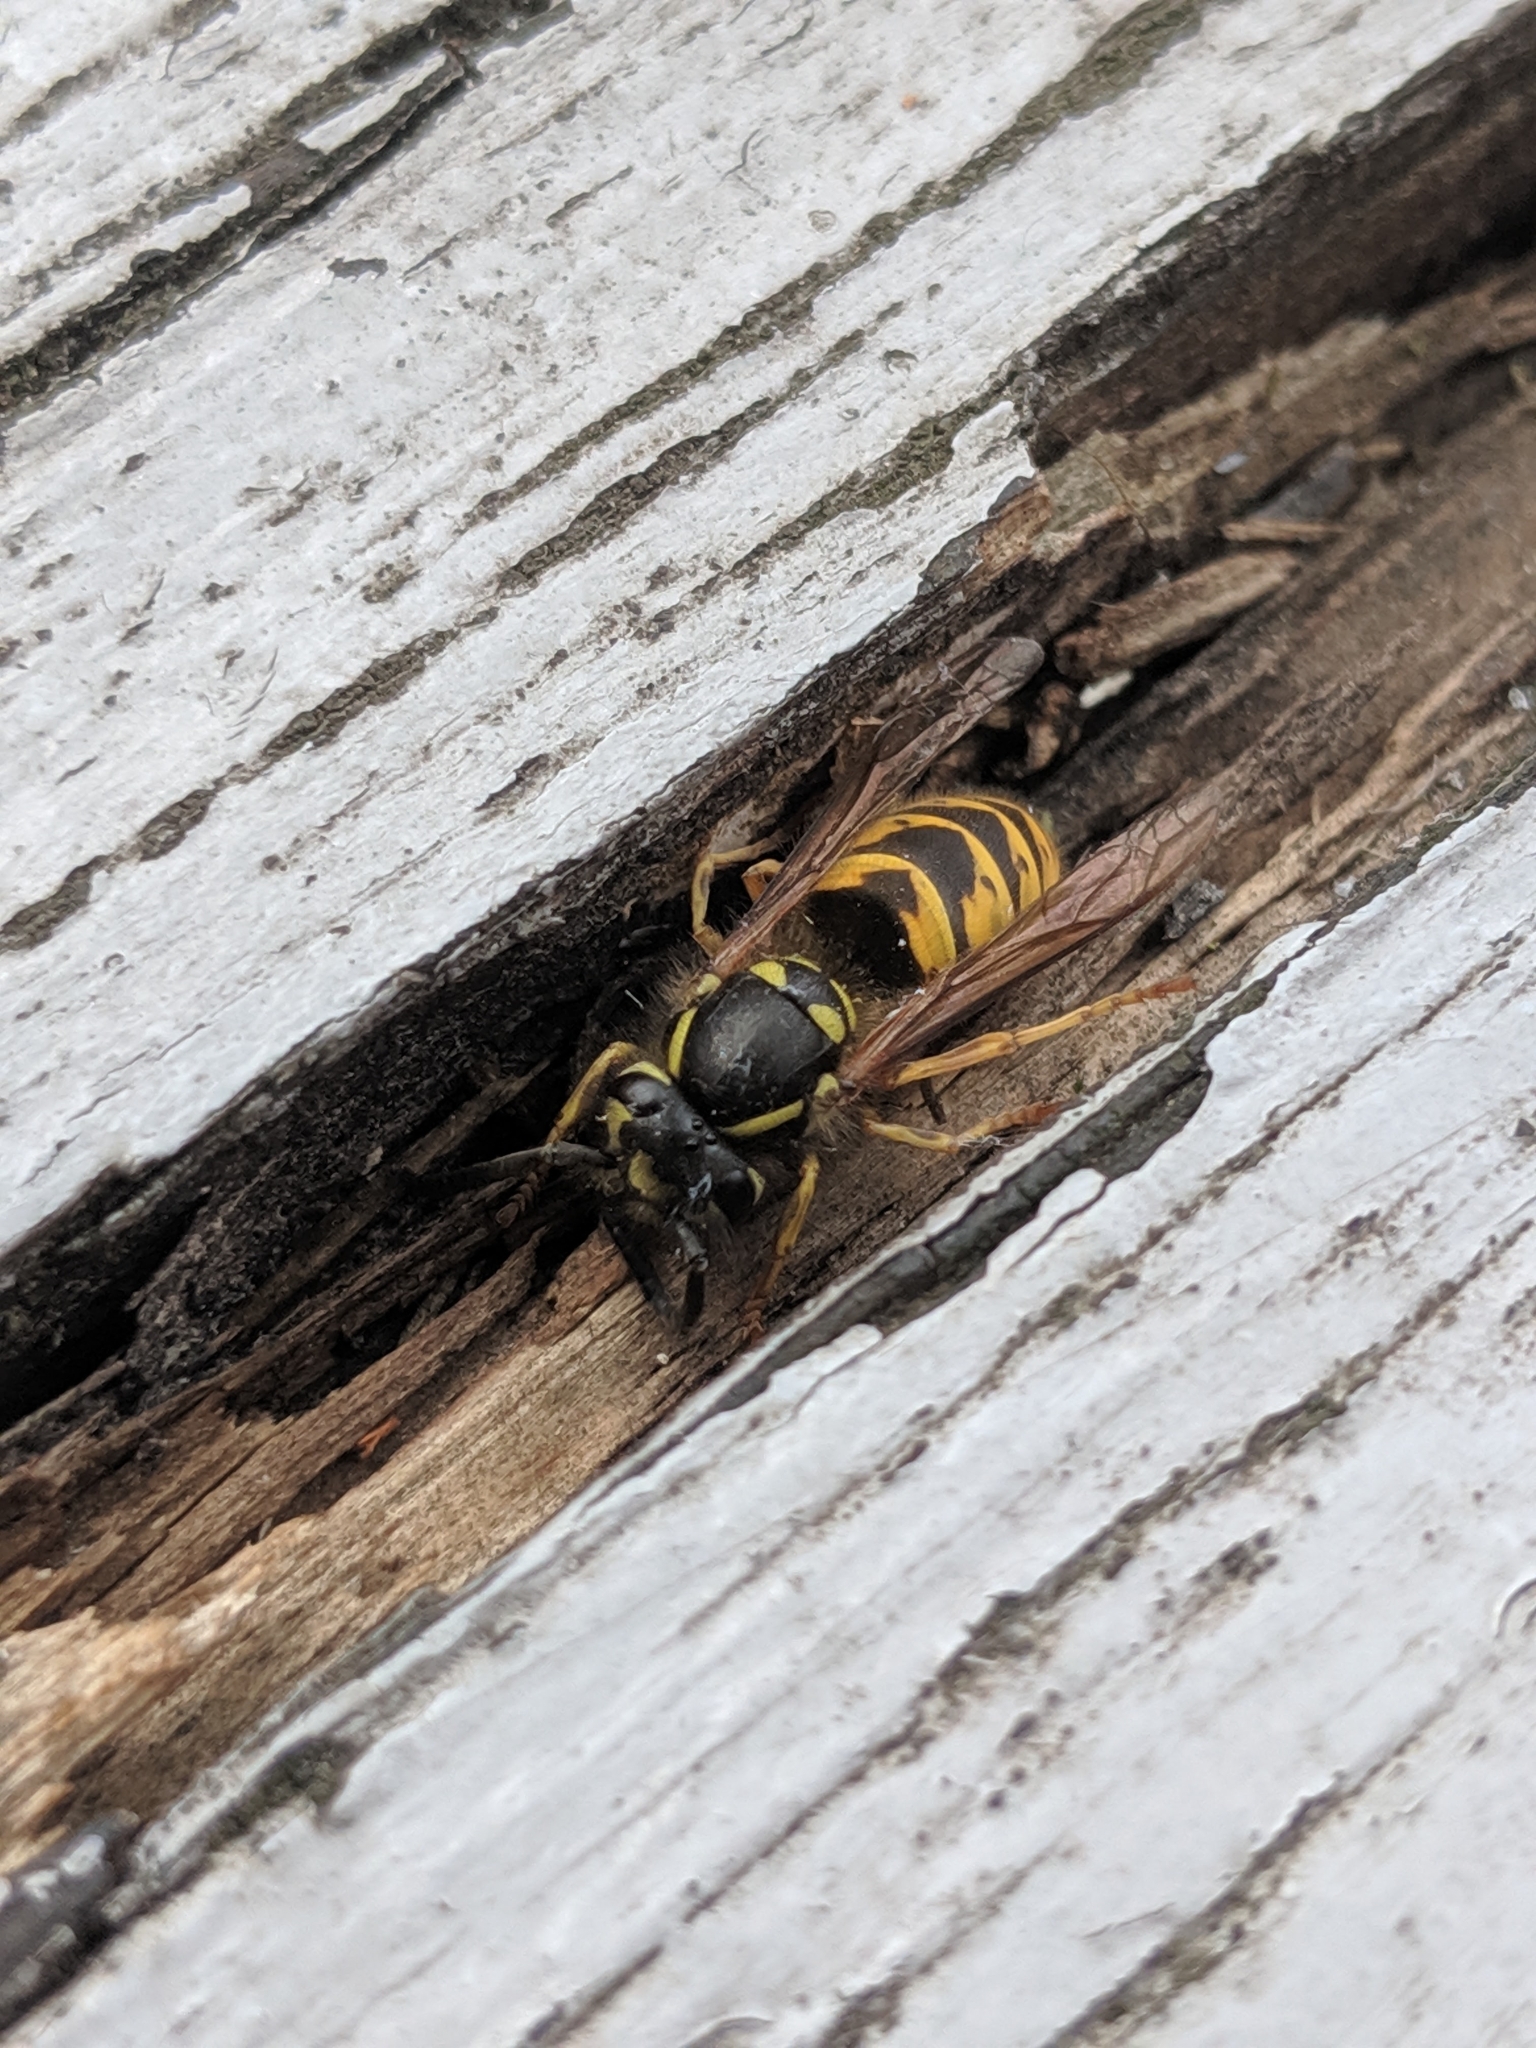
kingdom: Animalia
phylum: Arthropoda
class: Insecta
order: Hymenoptera
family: Vespidae
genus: Vespula
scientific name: Vespula vulgaris
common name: Common wasp
